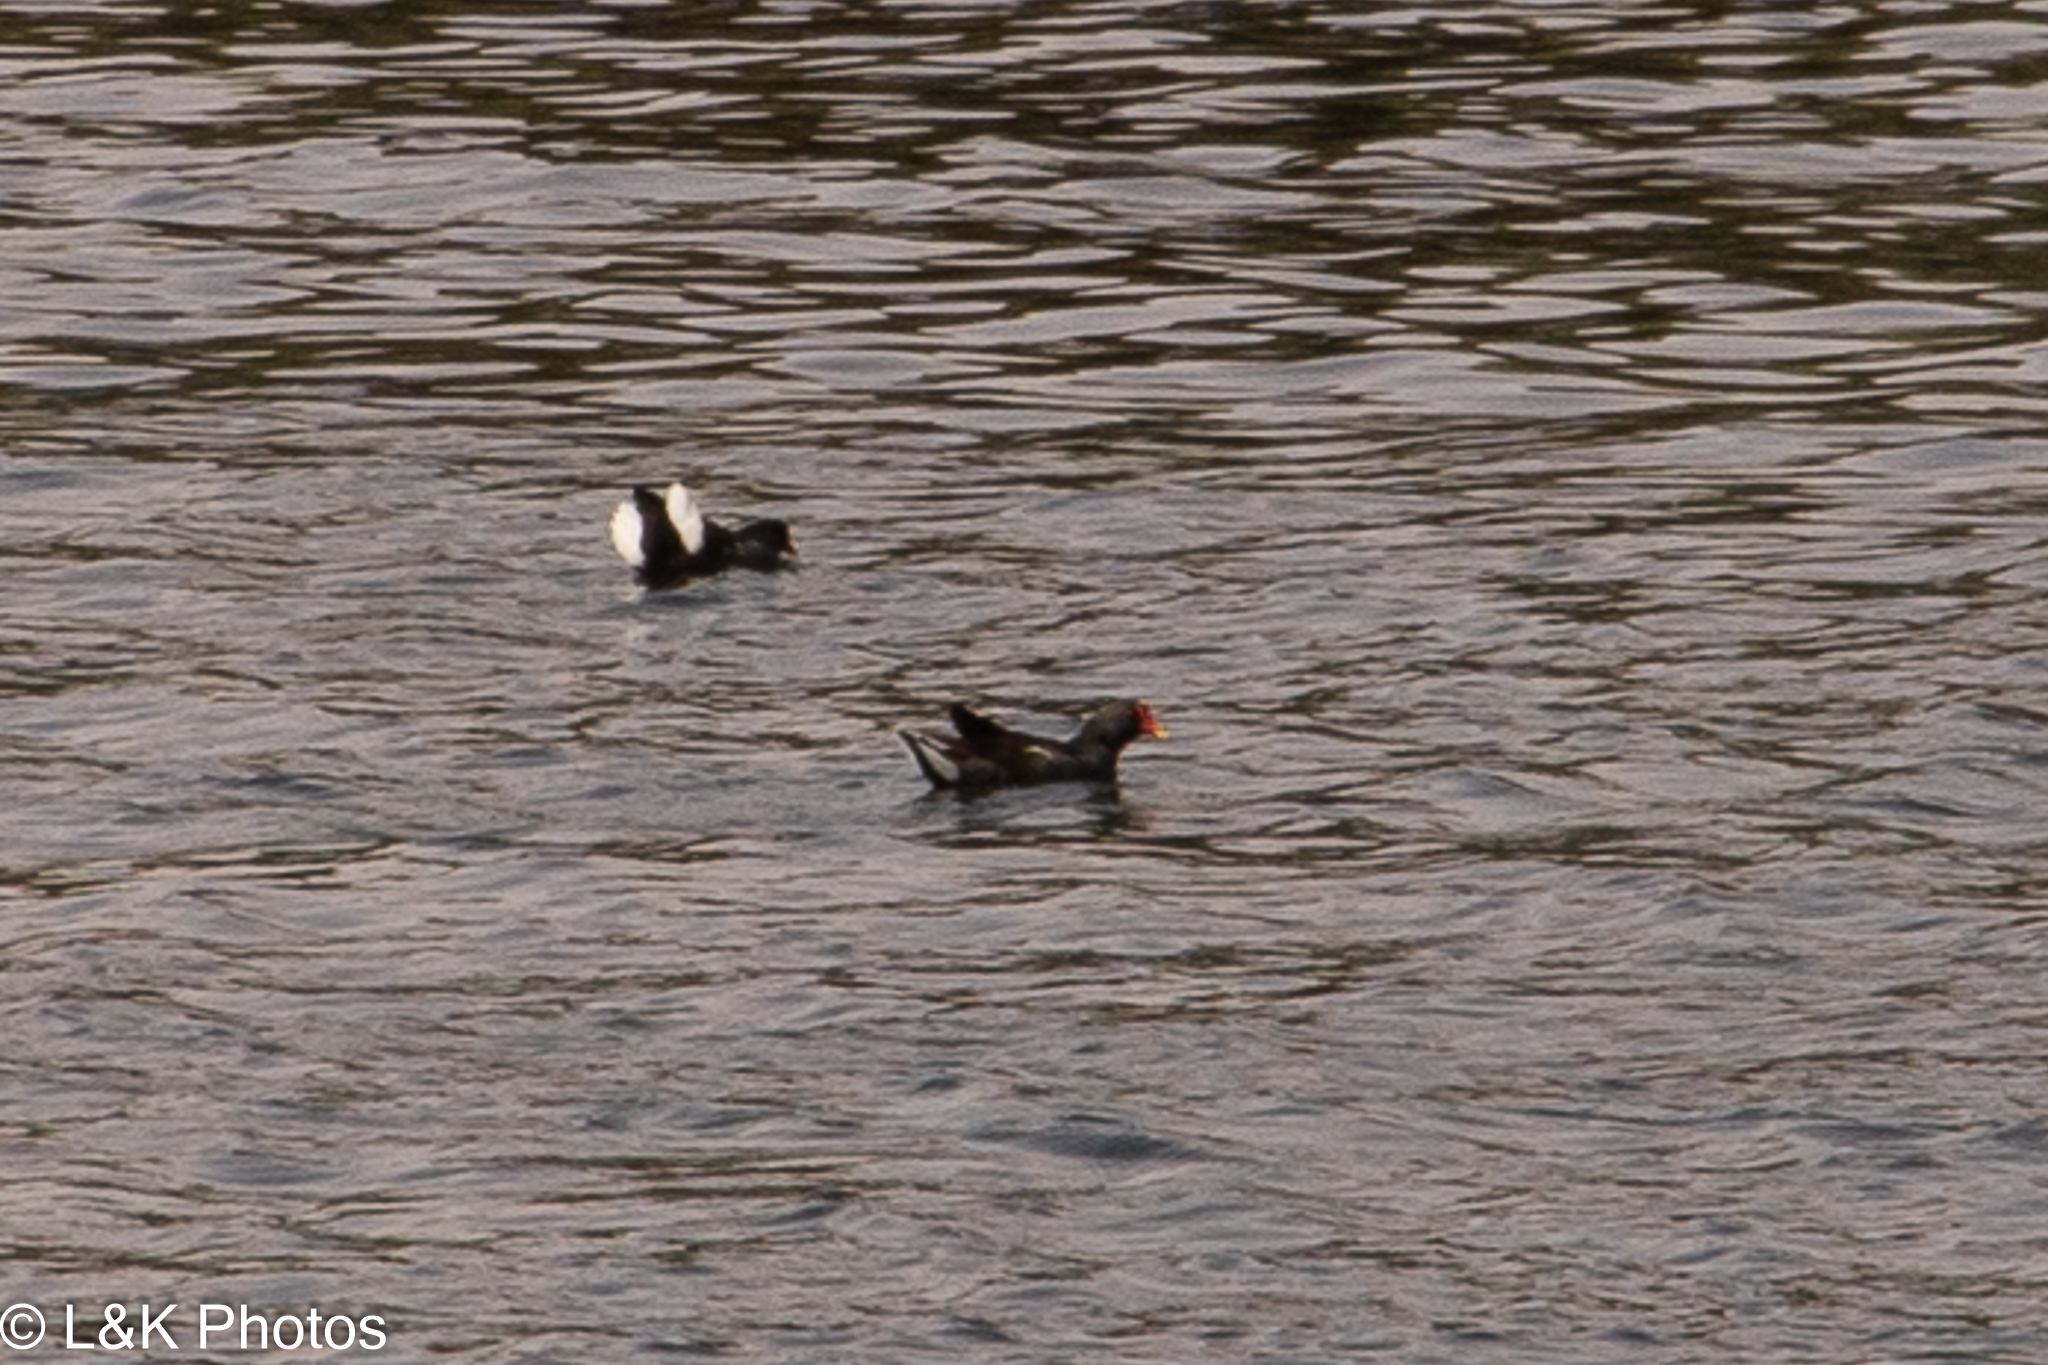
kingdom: Animalia
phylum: Chordata
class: Aves
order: Gruiformes
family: Rallidae
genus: Gallinula
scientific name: Gallinula chloropus
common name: Common moorhen
